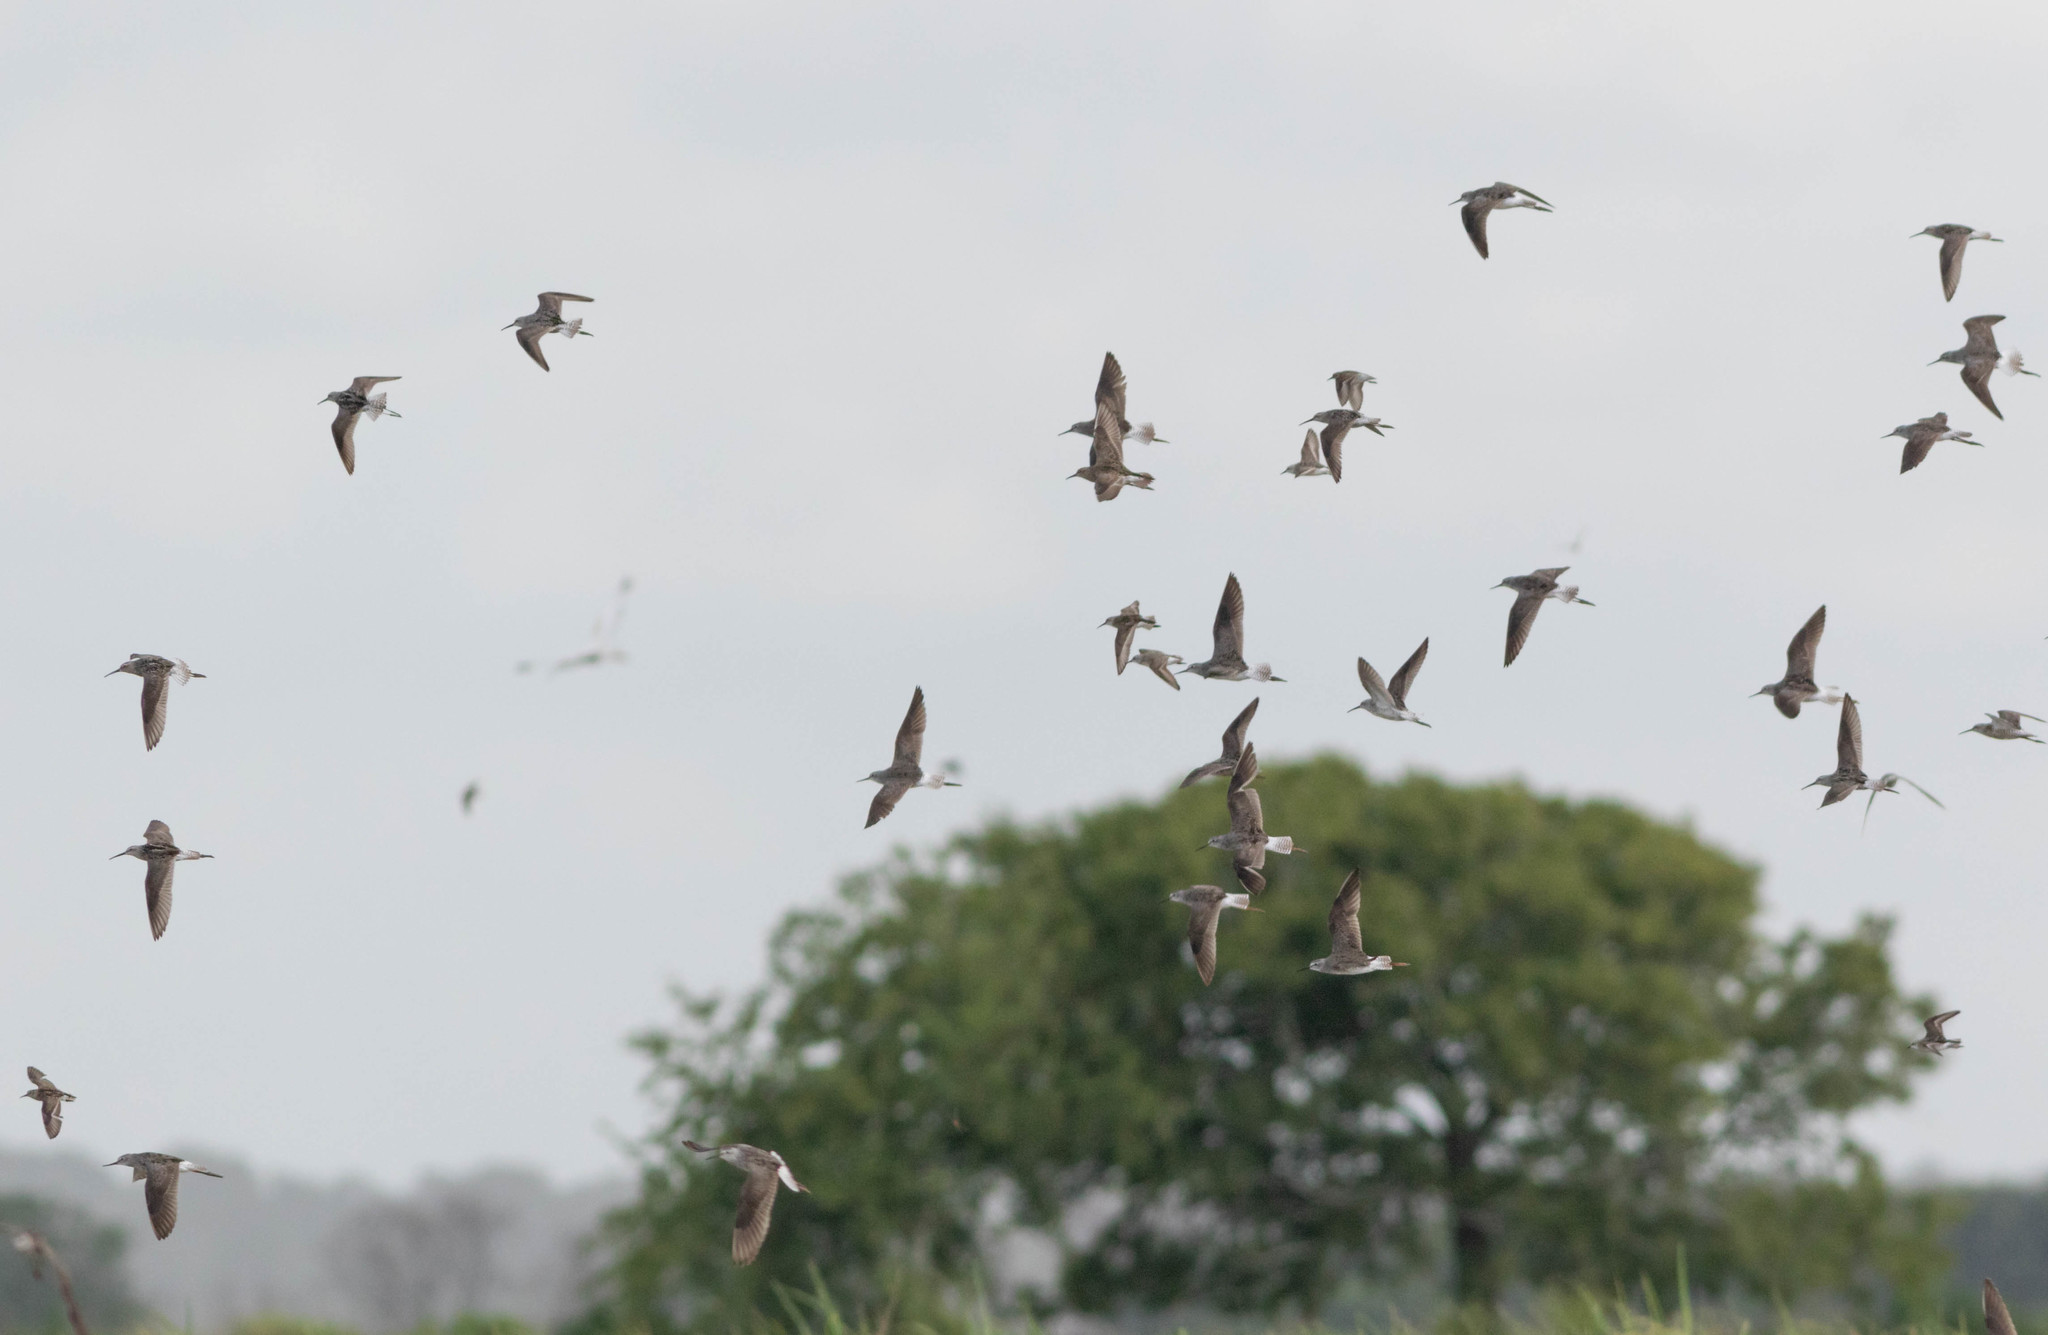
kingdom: Animalia
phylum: Chordata
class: Aves
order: Charadriiformes
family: Scolopacidae
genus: Calidris
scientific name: Calidris minutilla
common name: Least sandpiper
